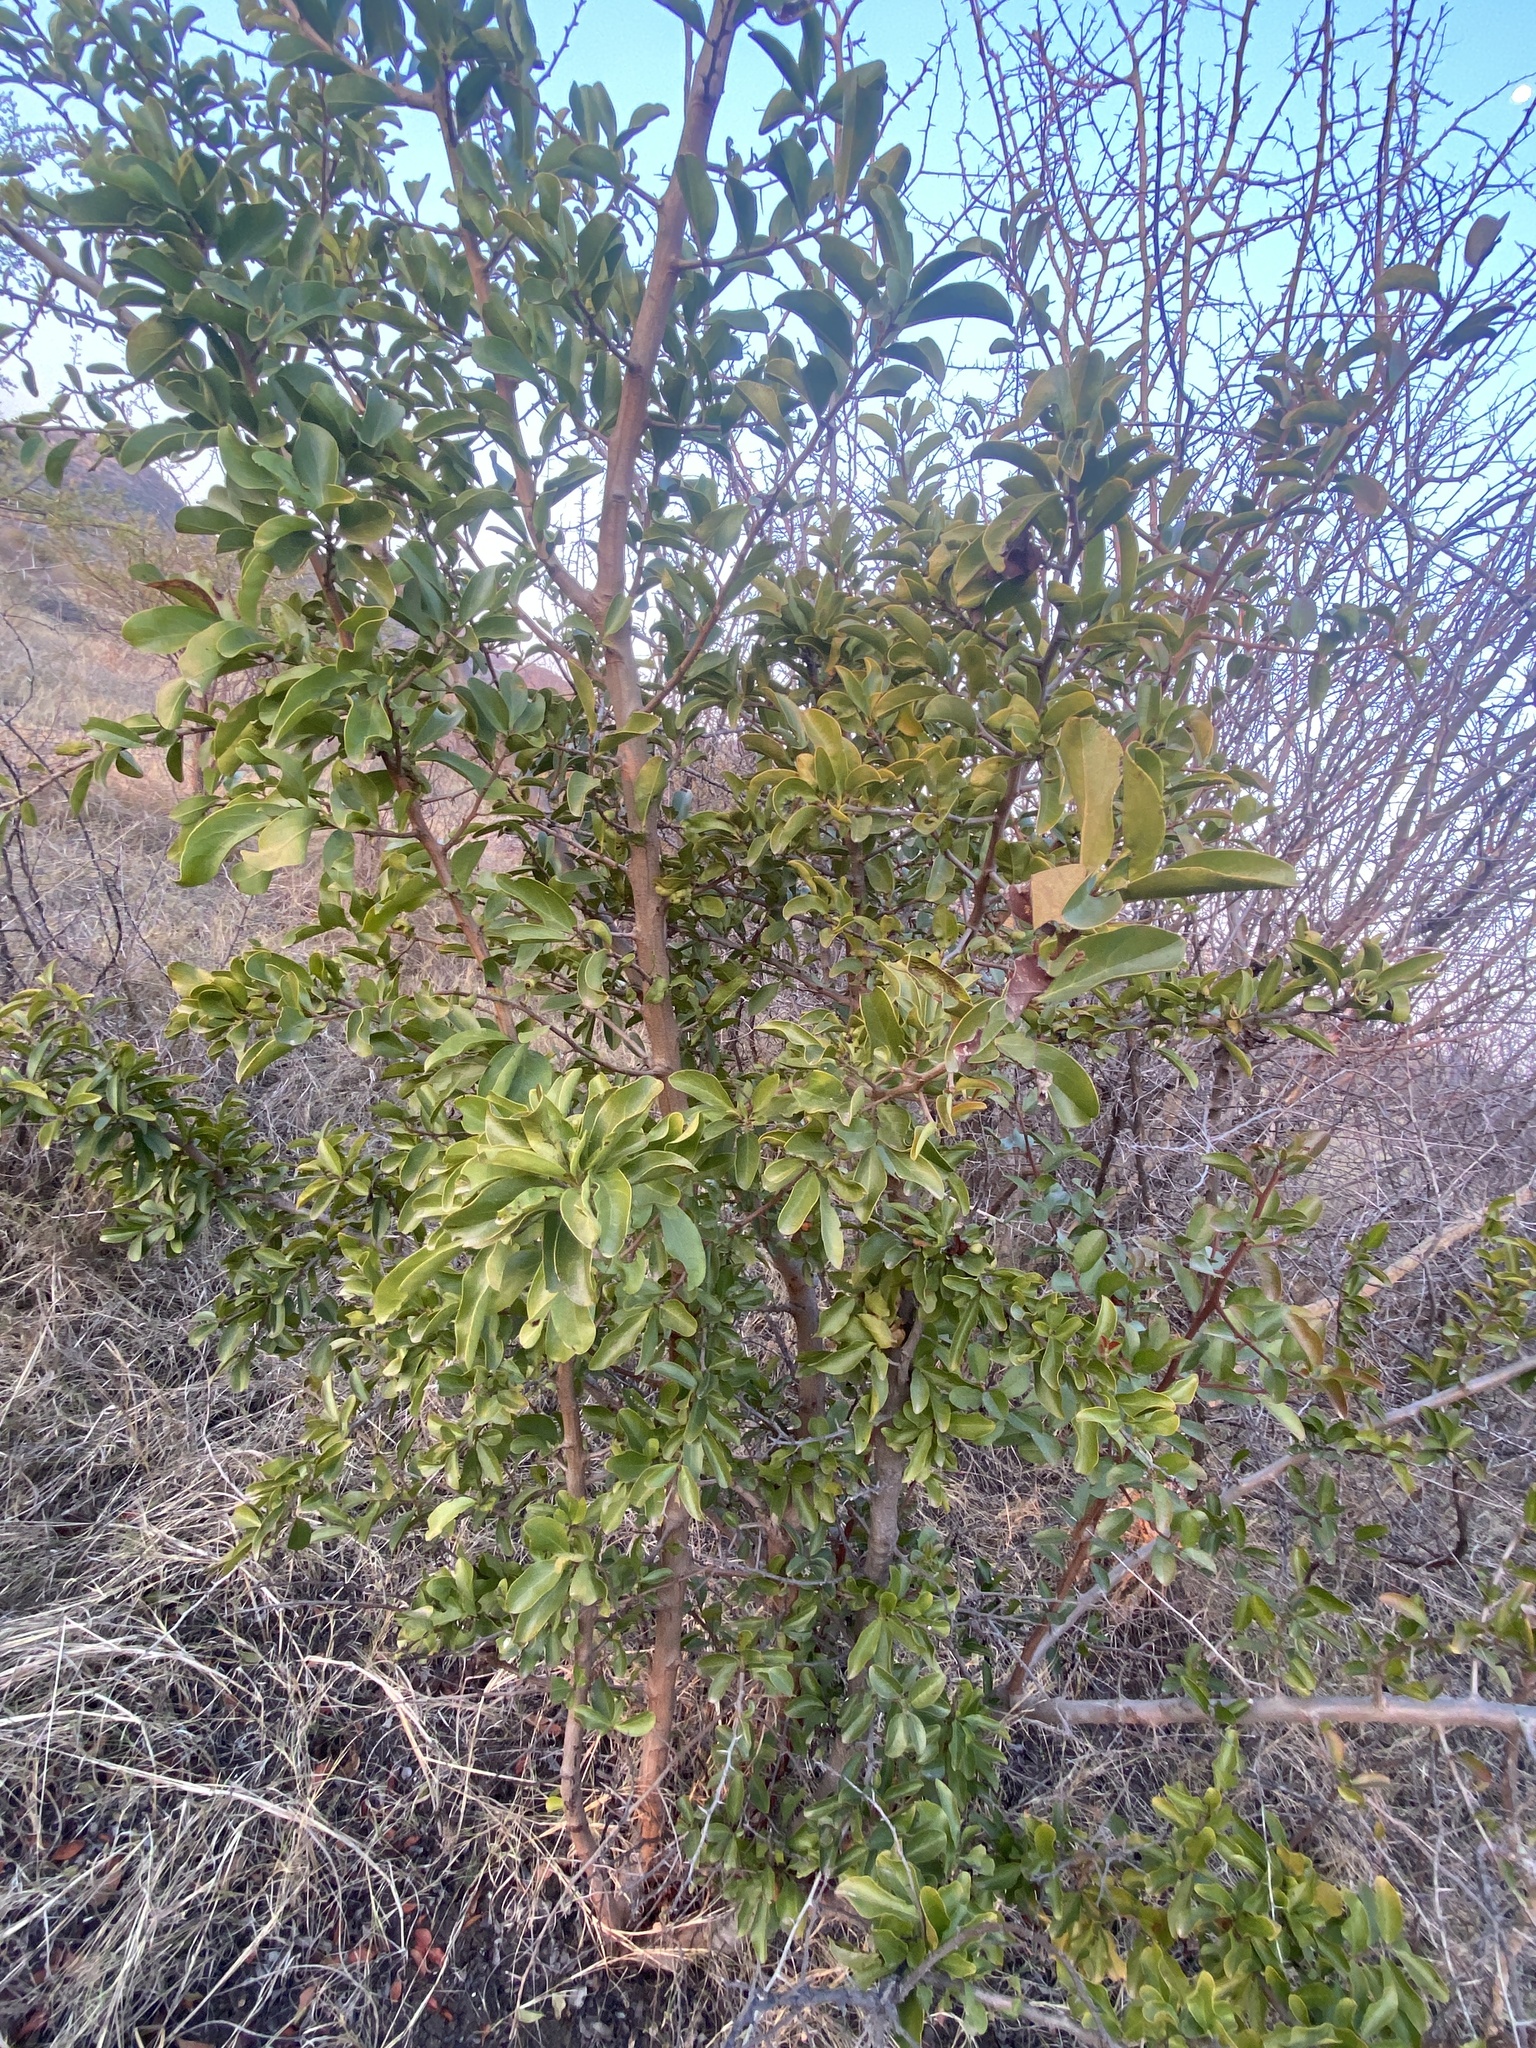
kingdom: Plantae
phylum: Tracheophyta
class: Magnoliopsida
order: Santalales
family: Ximeniaceae
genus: Ximenia
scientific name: Ximenia caffra
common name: Large sourplum
